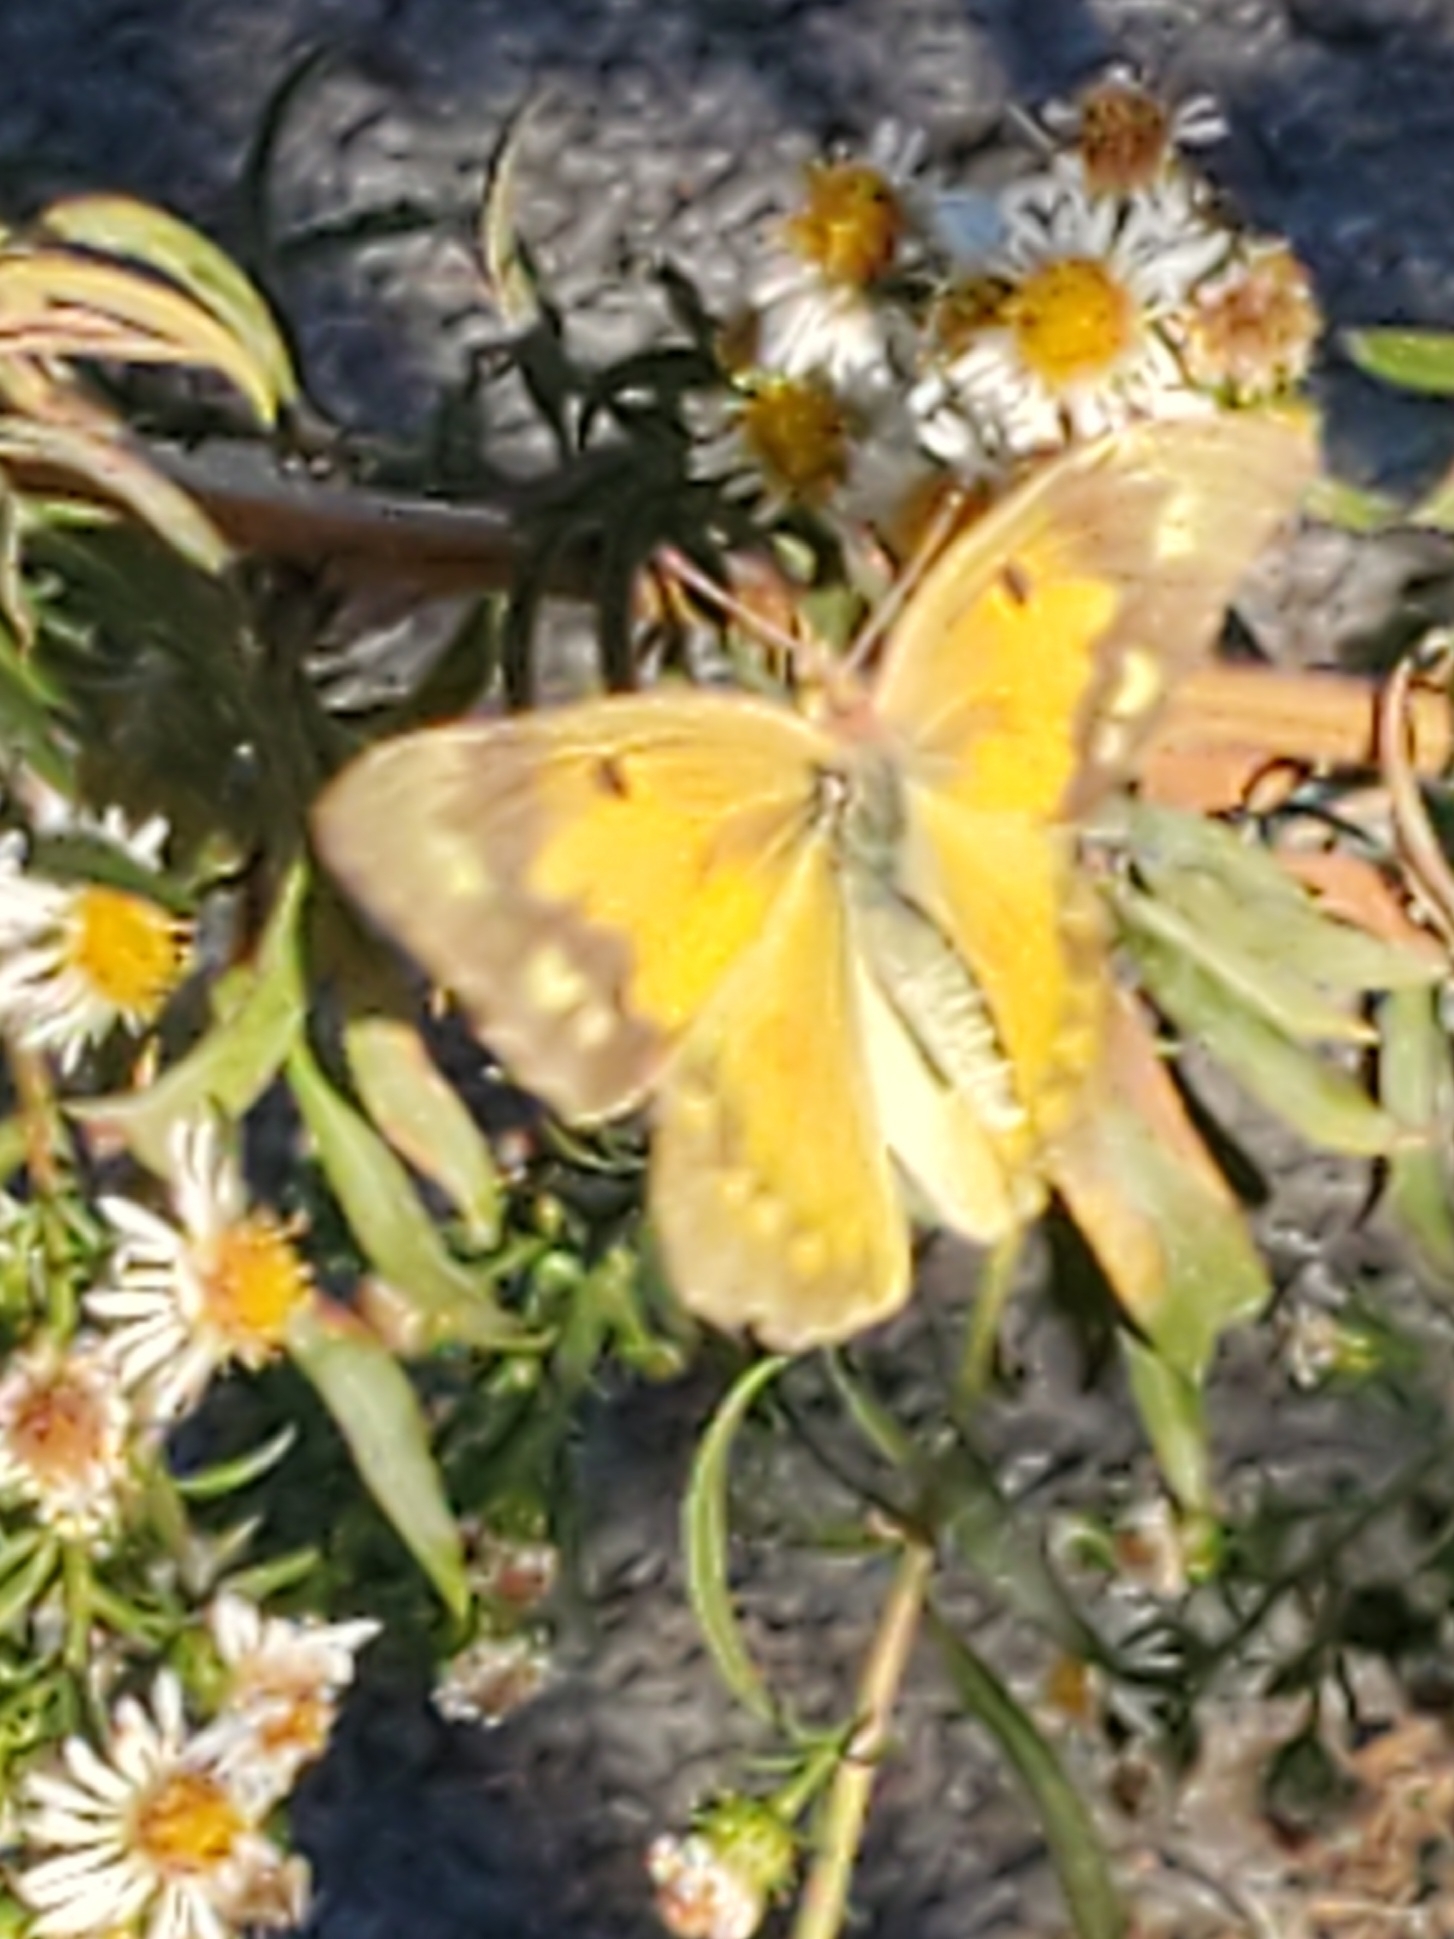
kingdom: Animalia
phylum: Arthropoda
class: Insecta
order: Lepidoptera
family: Pieridae
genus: Colias
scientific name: Colias eurytheme
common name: Alfalfa butterfly
